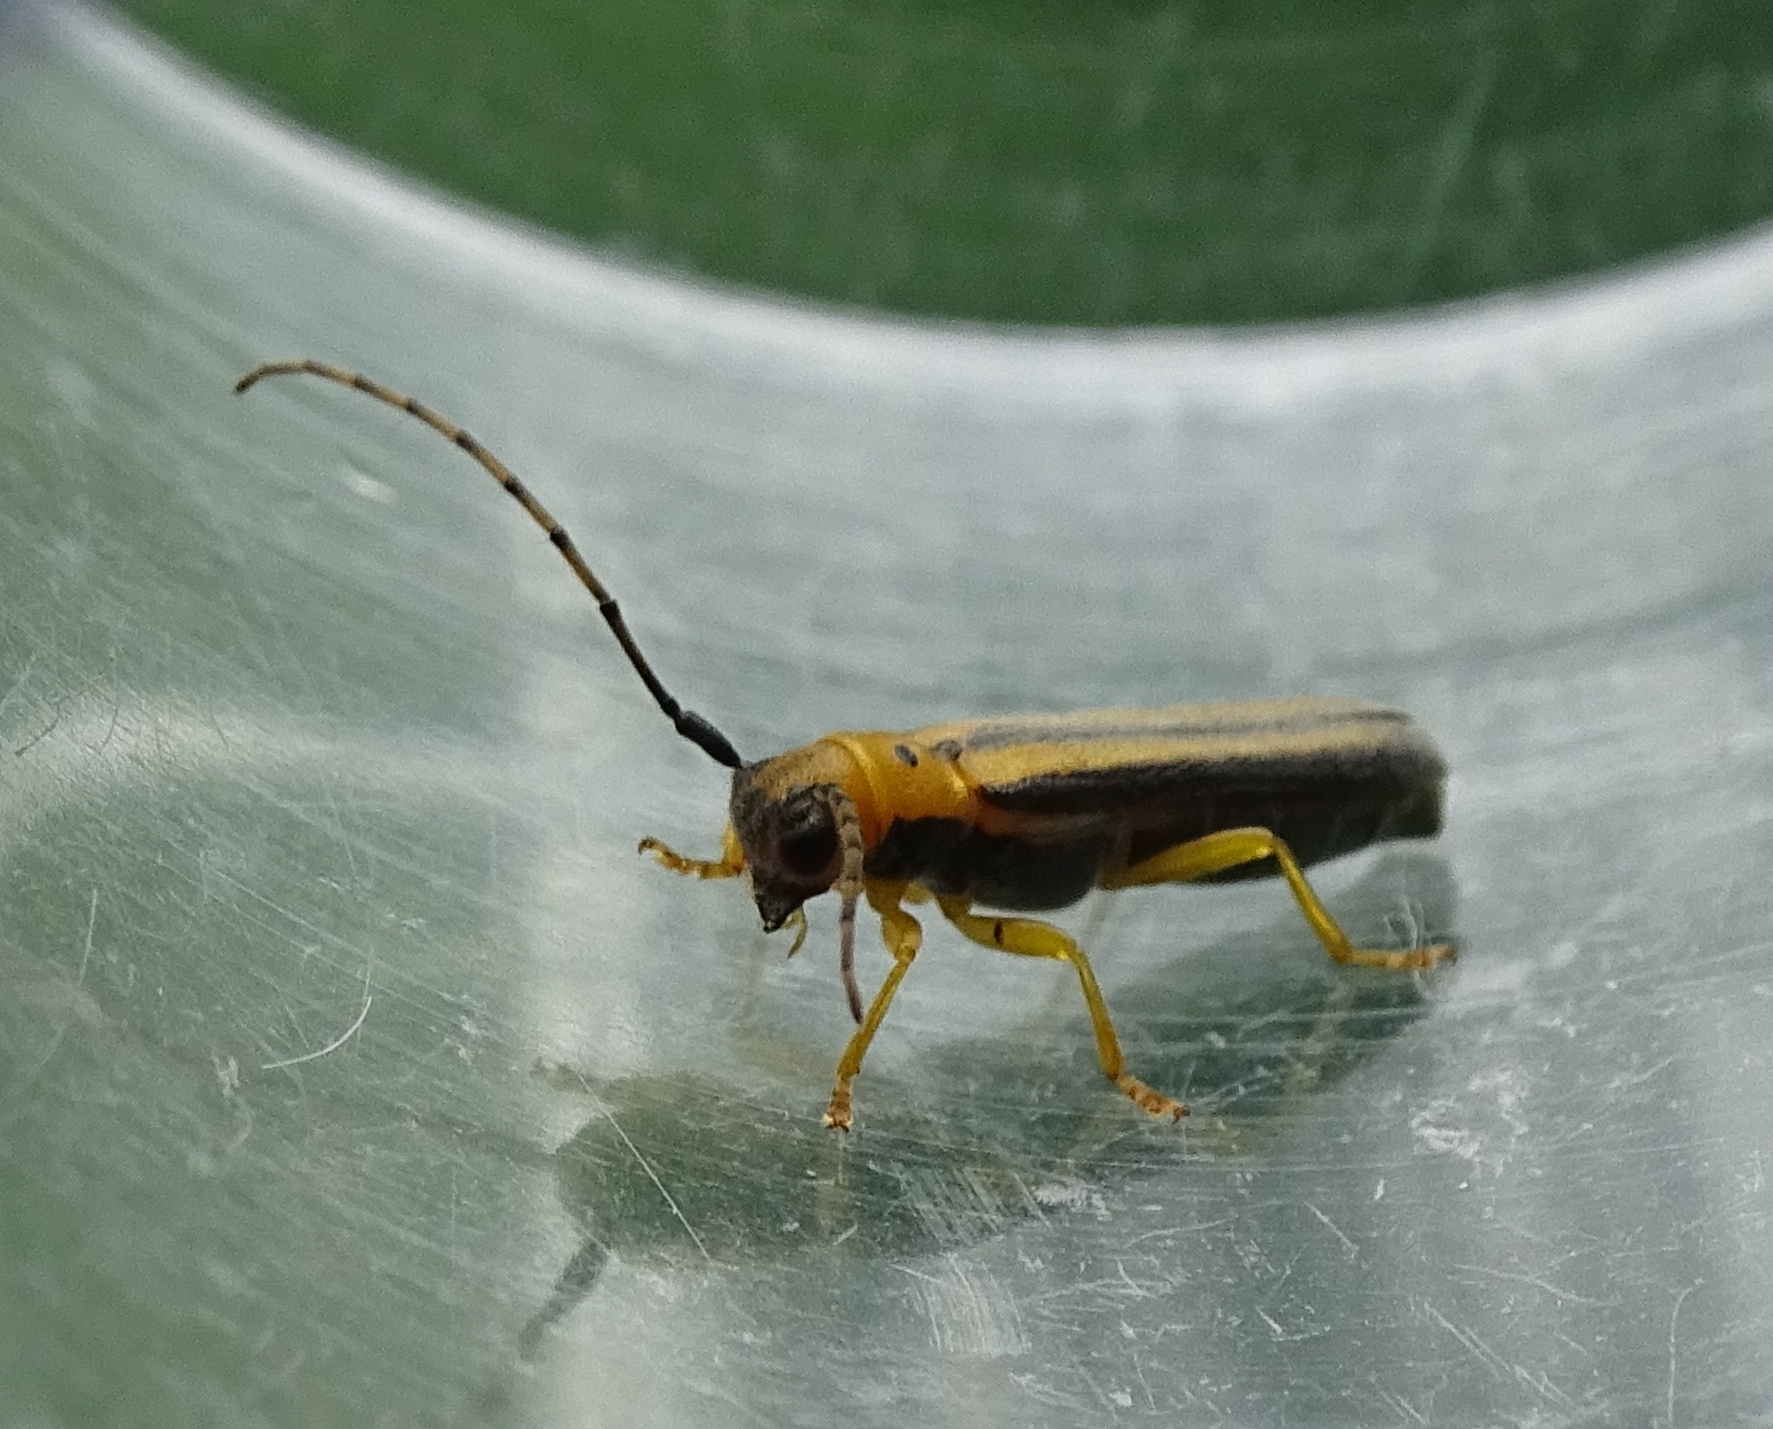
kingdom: Animalia
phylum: Arthropoda
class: Insecta
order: Coleoptera
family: Cerambycidae
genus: Oberea
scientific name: Oberea tripunctata
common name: Dogwood twig borer
